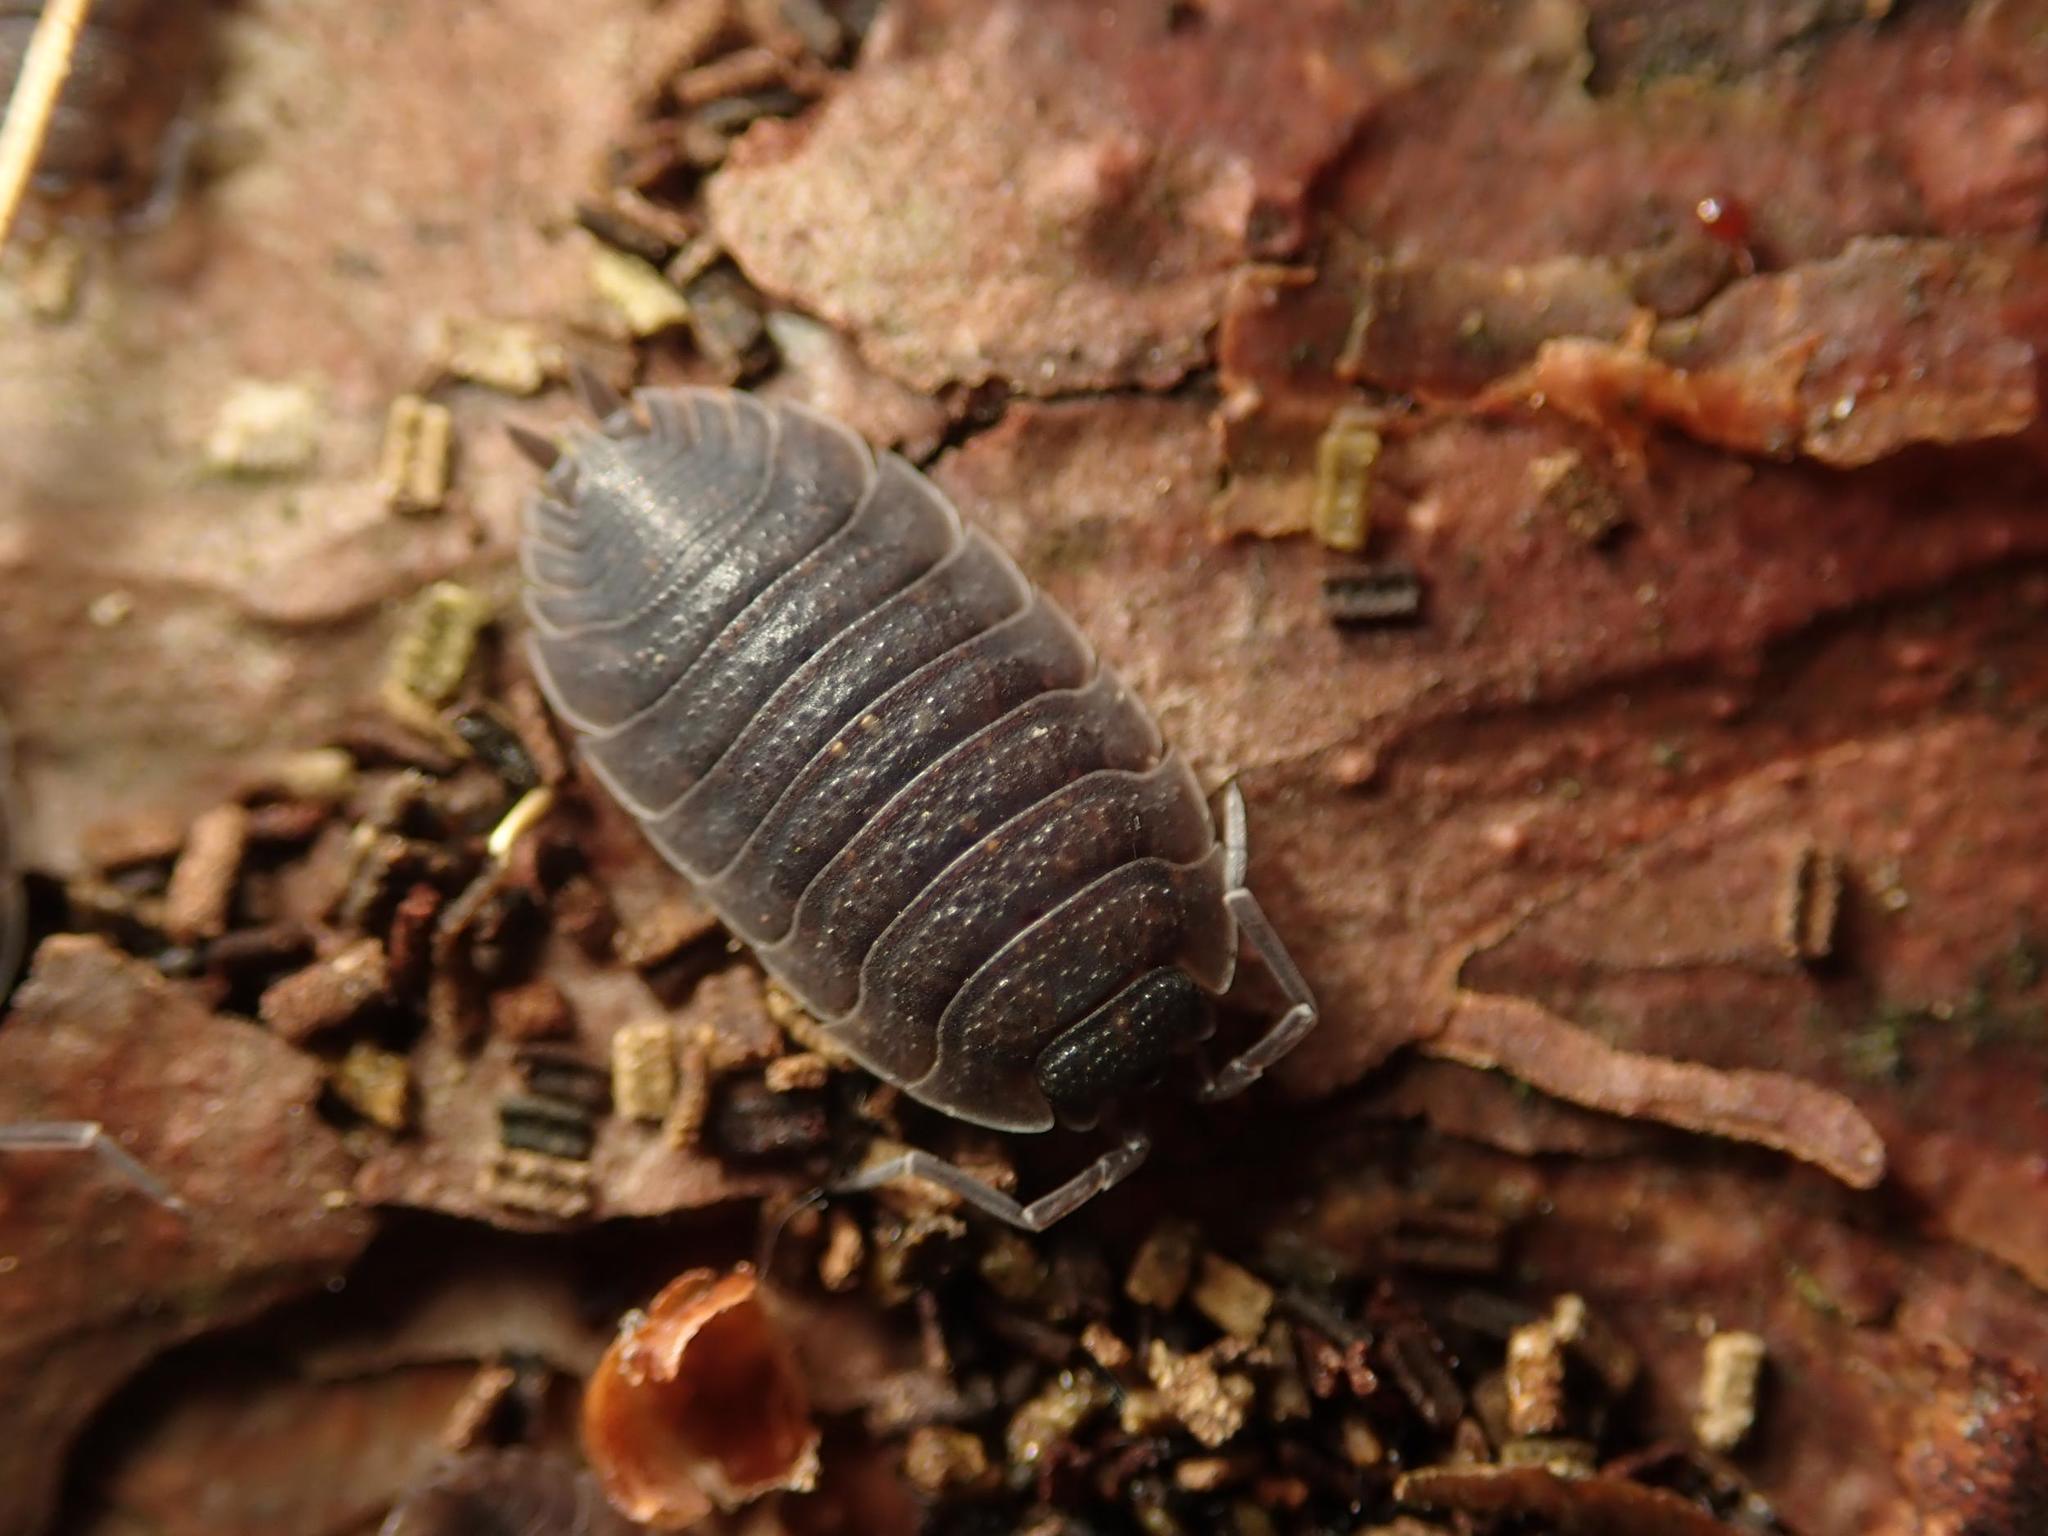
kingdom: Animalia
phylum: Arthropoda
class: Malacostraca
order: Isopoda
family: Porcellionidae
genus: Porcellio
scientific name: Porcellio scaber
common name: Common rough woodlouse
